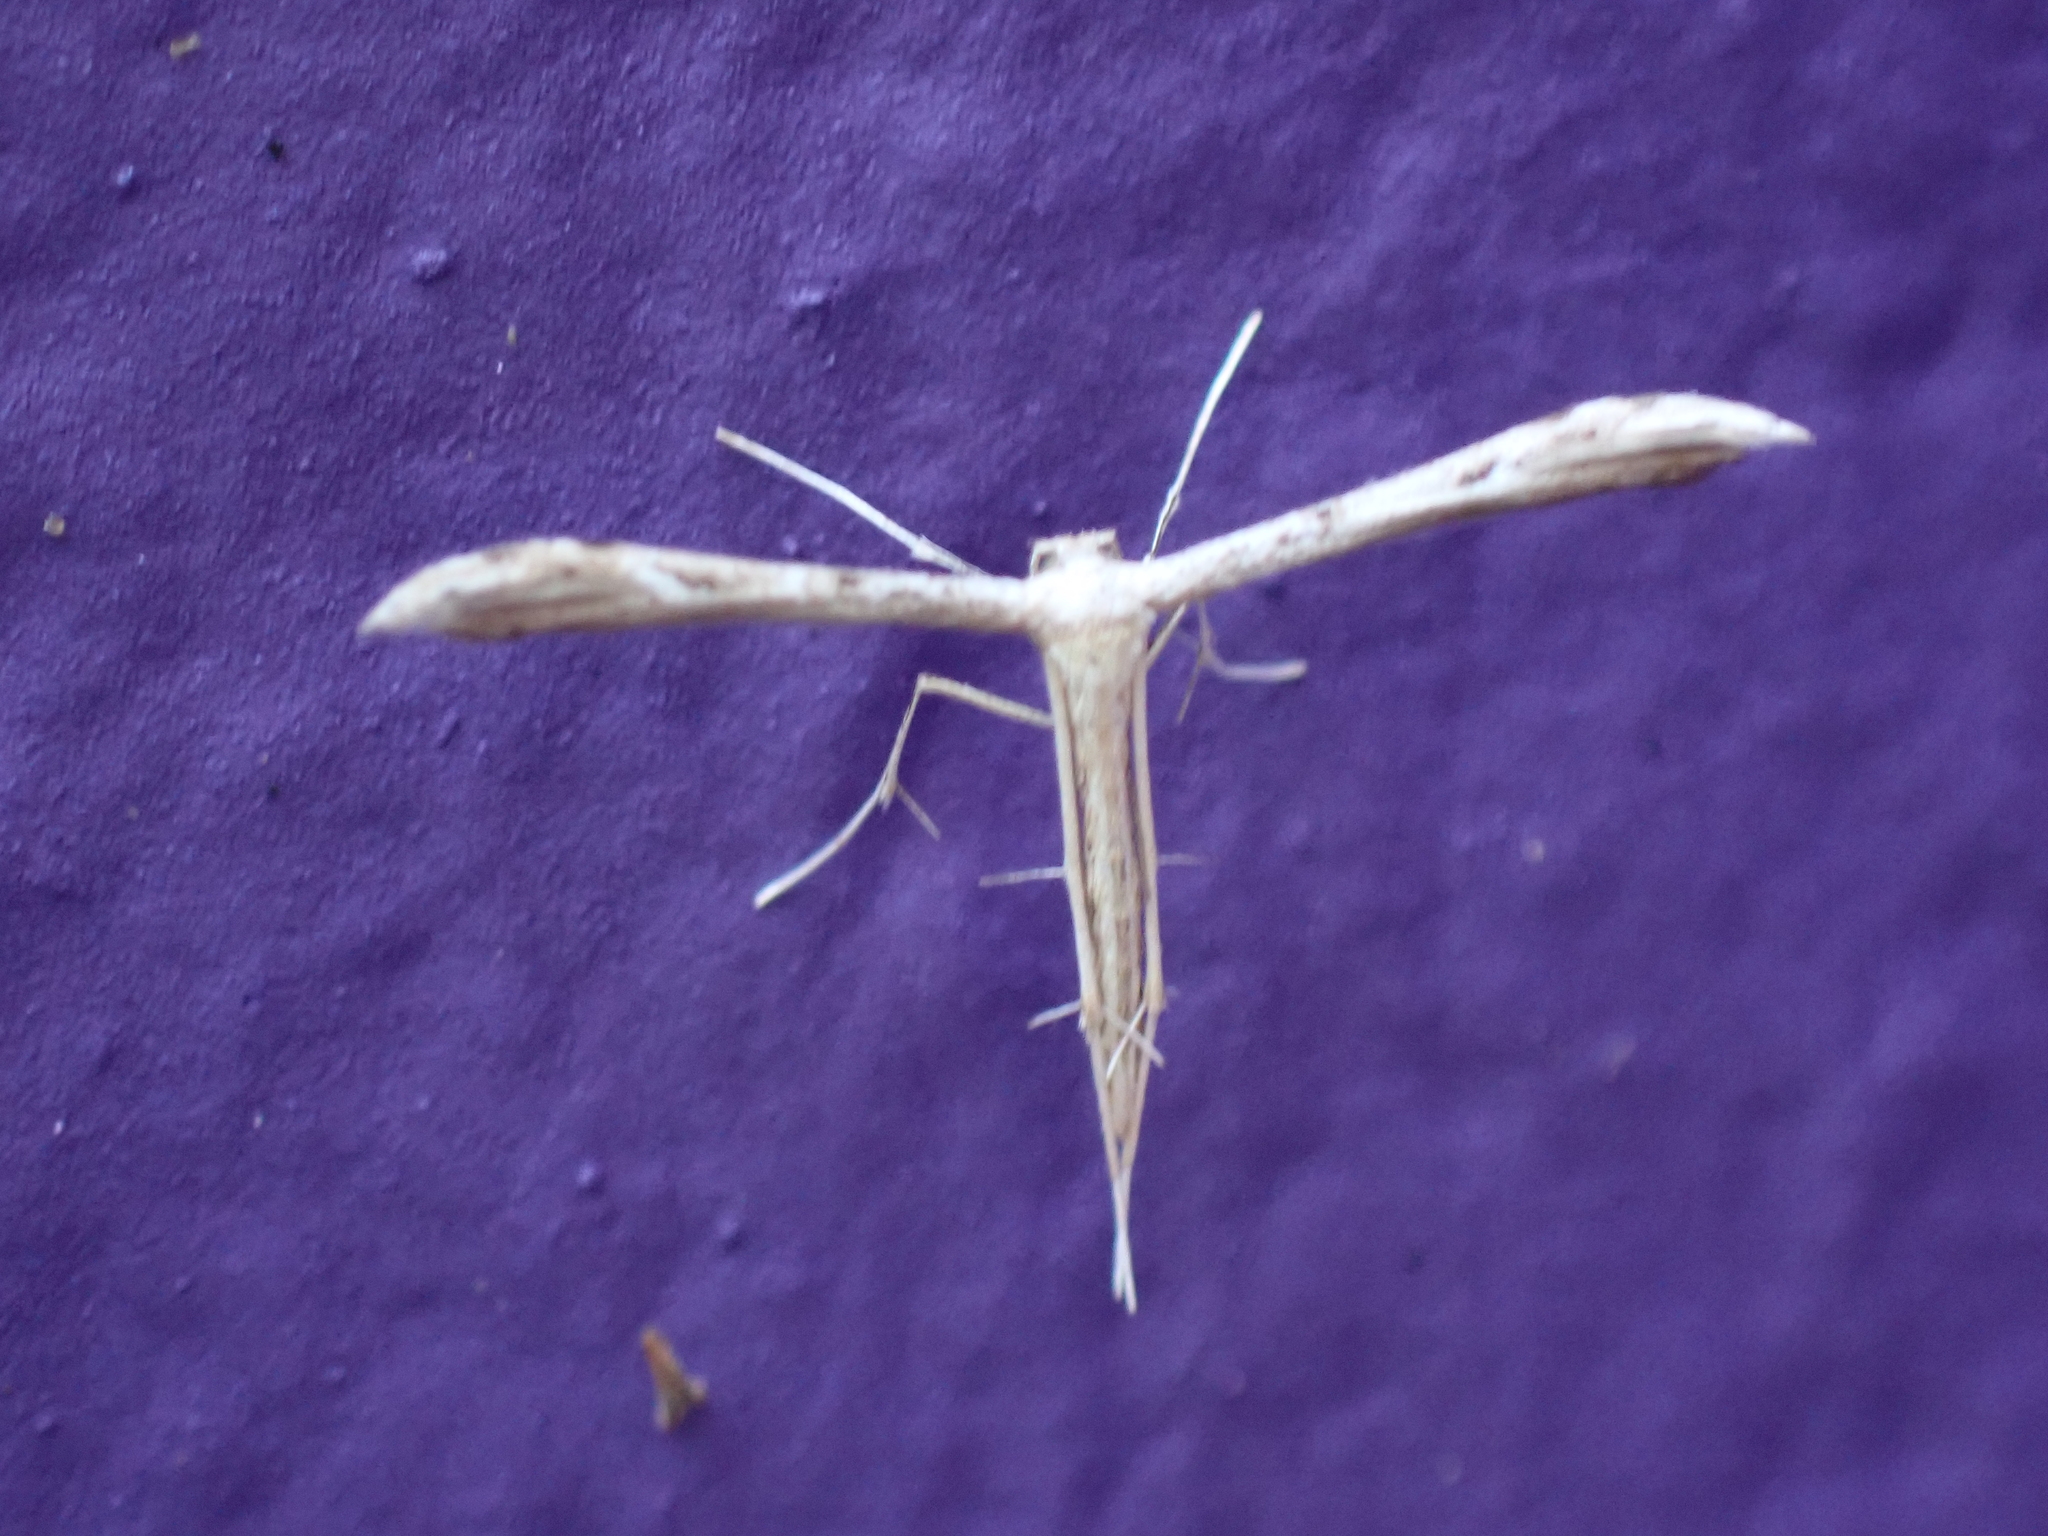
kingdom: Animalia
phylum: Arthropoda
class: Insecta
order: Lepidoptera
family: Pterophoridae
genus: Pselnophorus
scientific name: Pselnophorus belfragei
